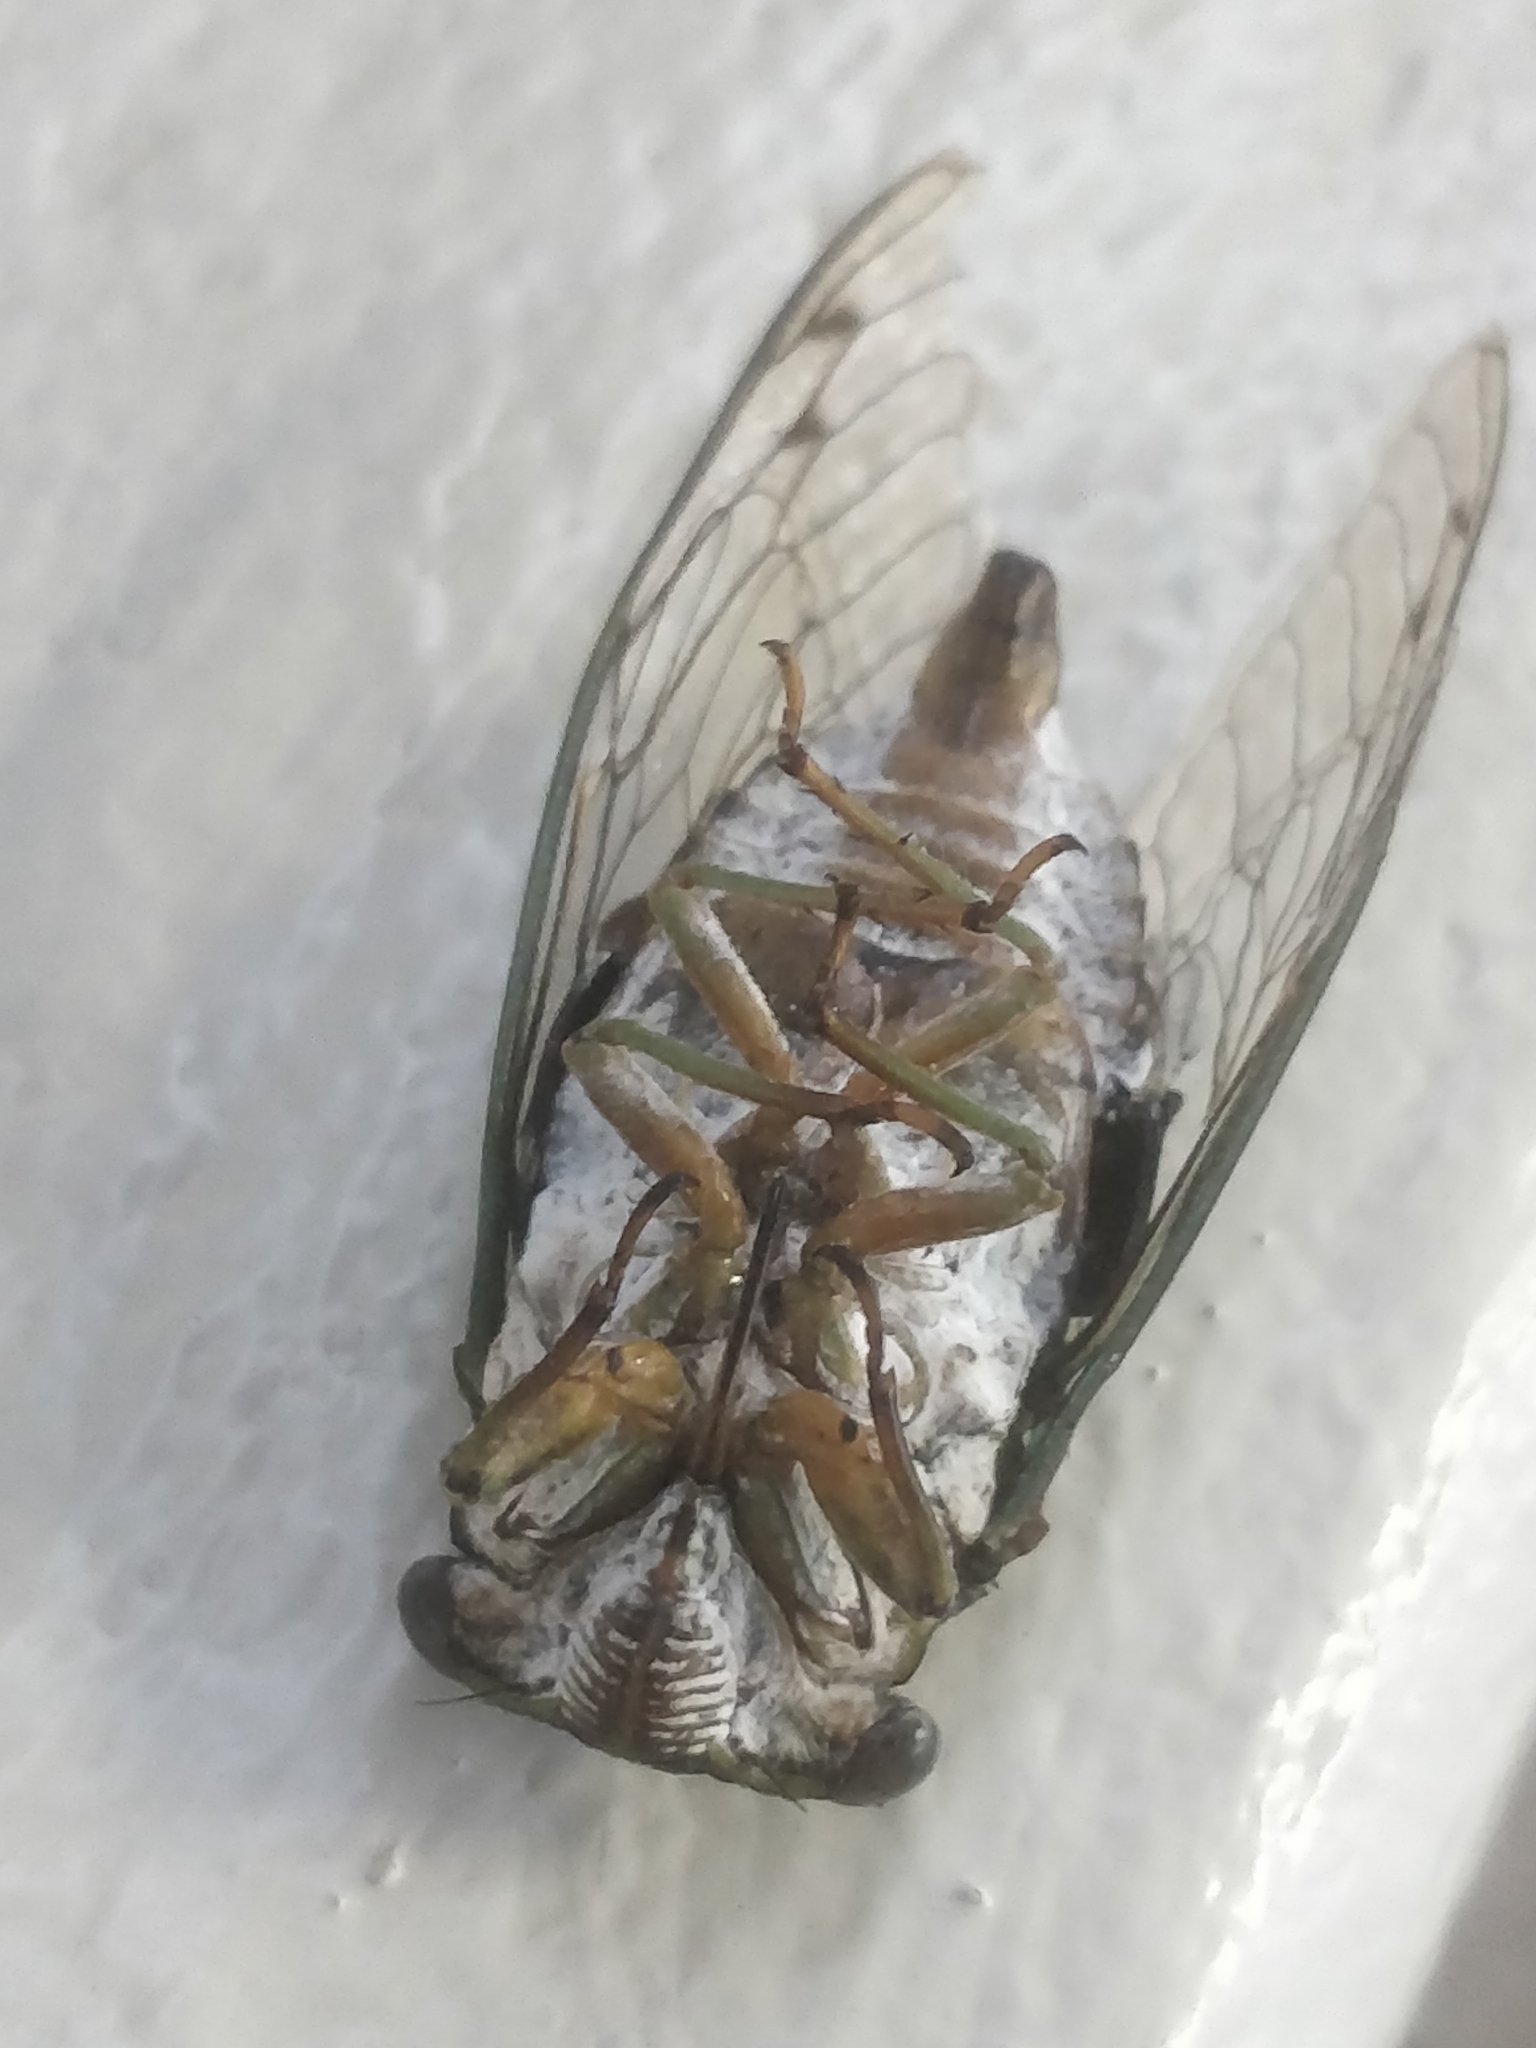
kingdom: Animalia
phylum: Arthropoda
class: Insecta
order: Hemiptera
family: Cicadidae
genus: Neotibicen
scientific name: Neotibicen pruinosus
